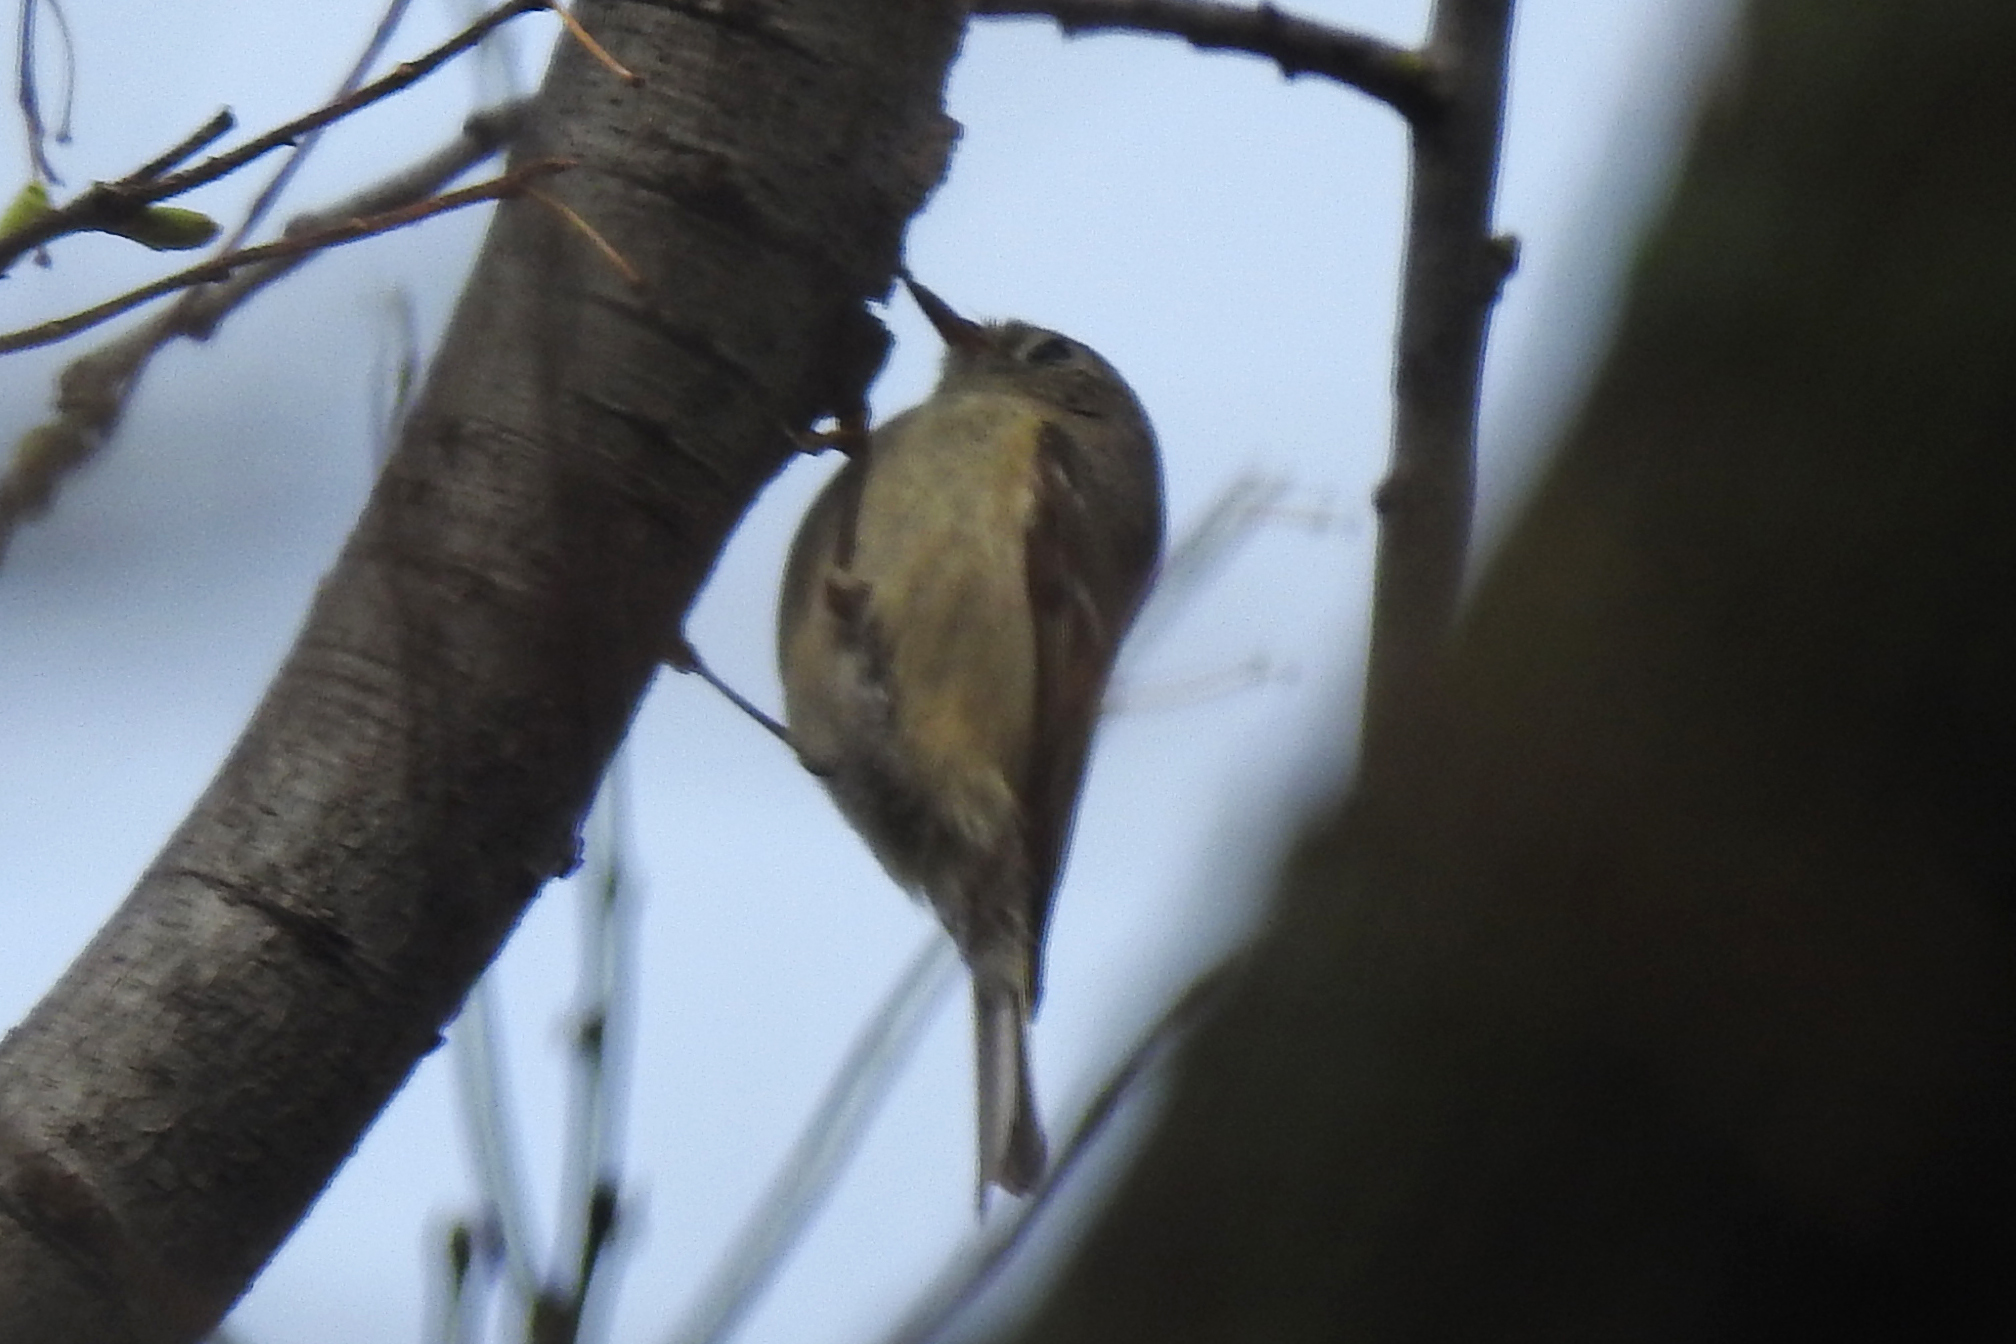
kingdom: Animalia
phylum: Chordata
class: Aves
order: Passeriformes
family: Regulidae
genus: Regulus
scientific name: Regulus calendula
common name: Ruby-crowned kinglet
